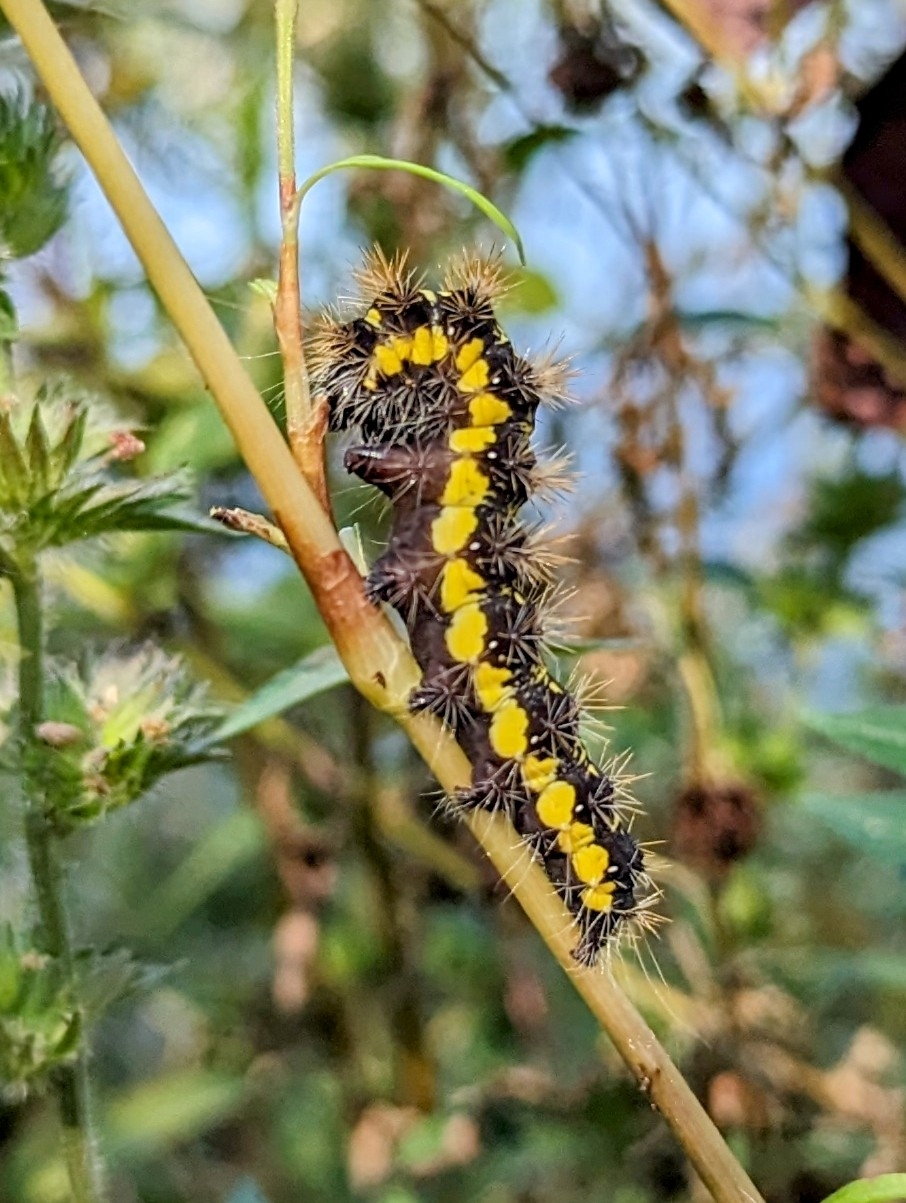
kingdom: Animalia
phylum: Arthropoda
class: Insecta
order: Lepidoptera
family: Noctuidae
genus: Acronicta
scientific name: Acronicta oblinita
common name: Smeared dagger
